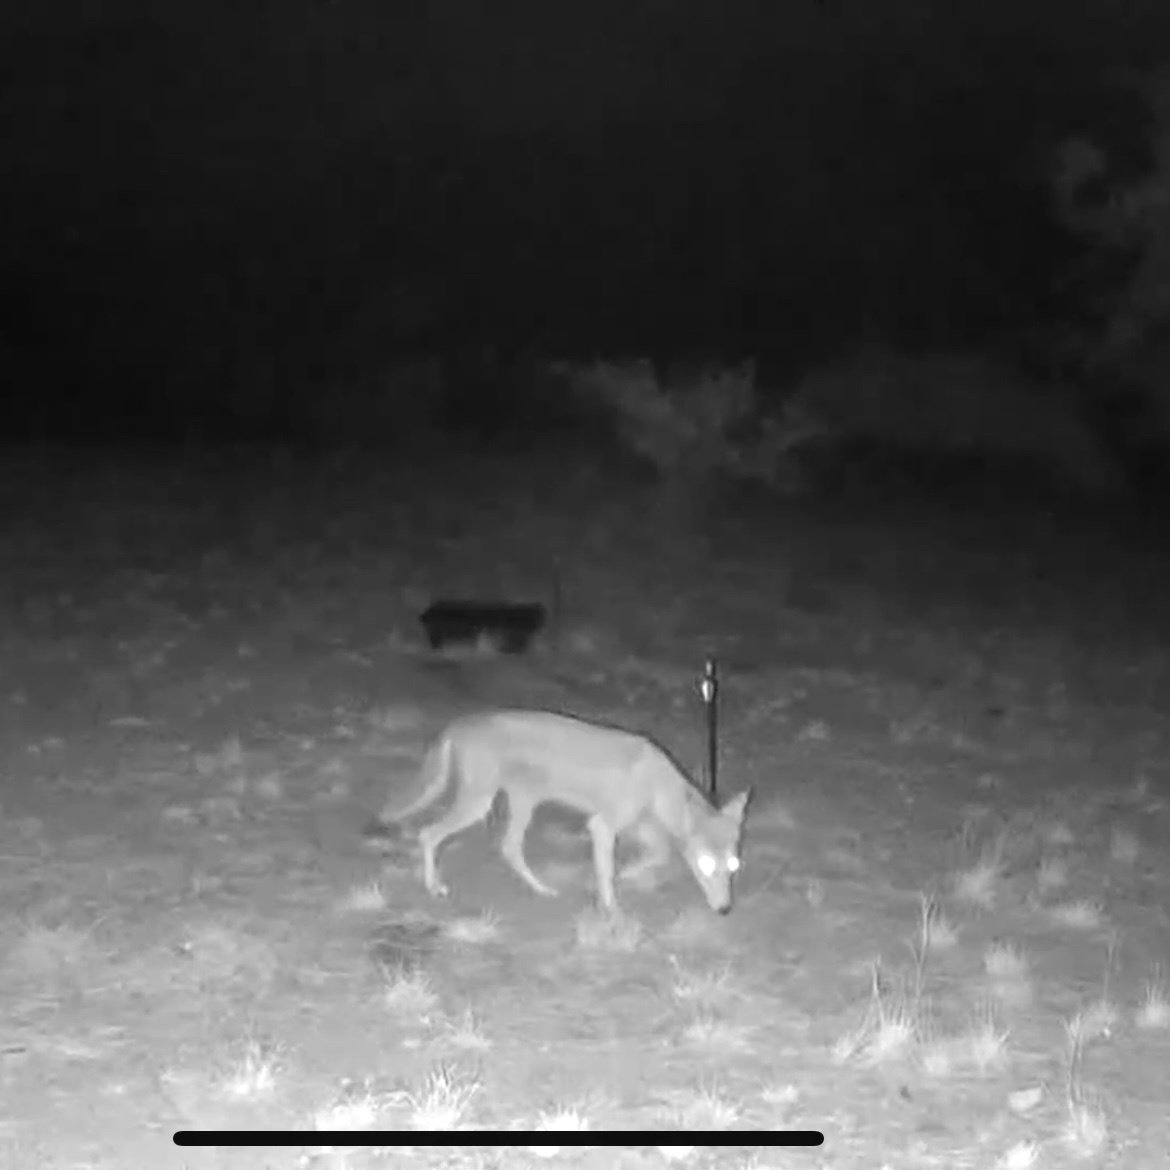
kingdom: Animalia
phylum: Chordata
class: Mammalia
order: Carnivora
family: Canidae
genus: Canis
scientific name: Canis latrans
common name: Coyote
